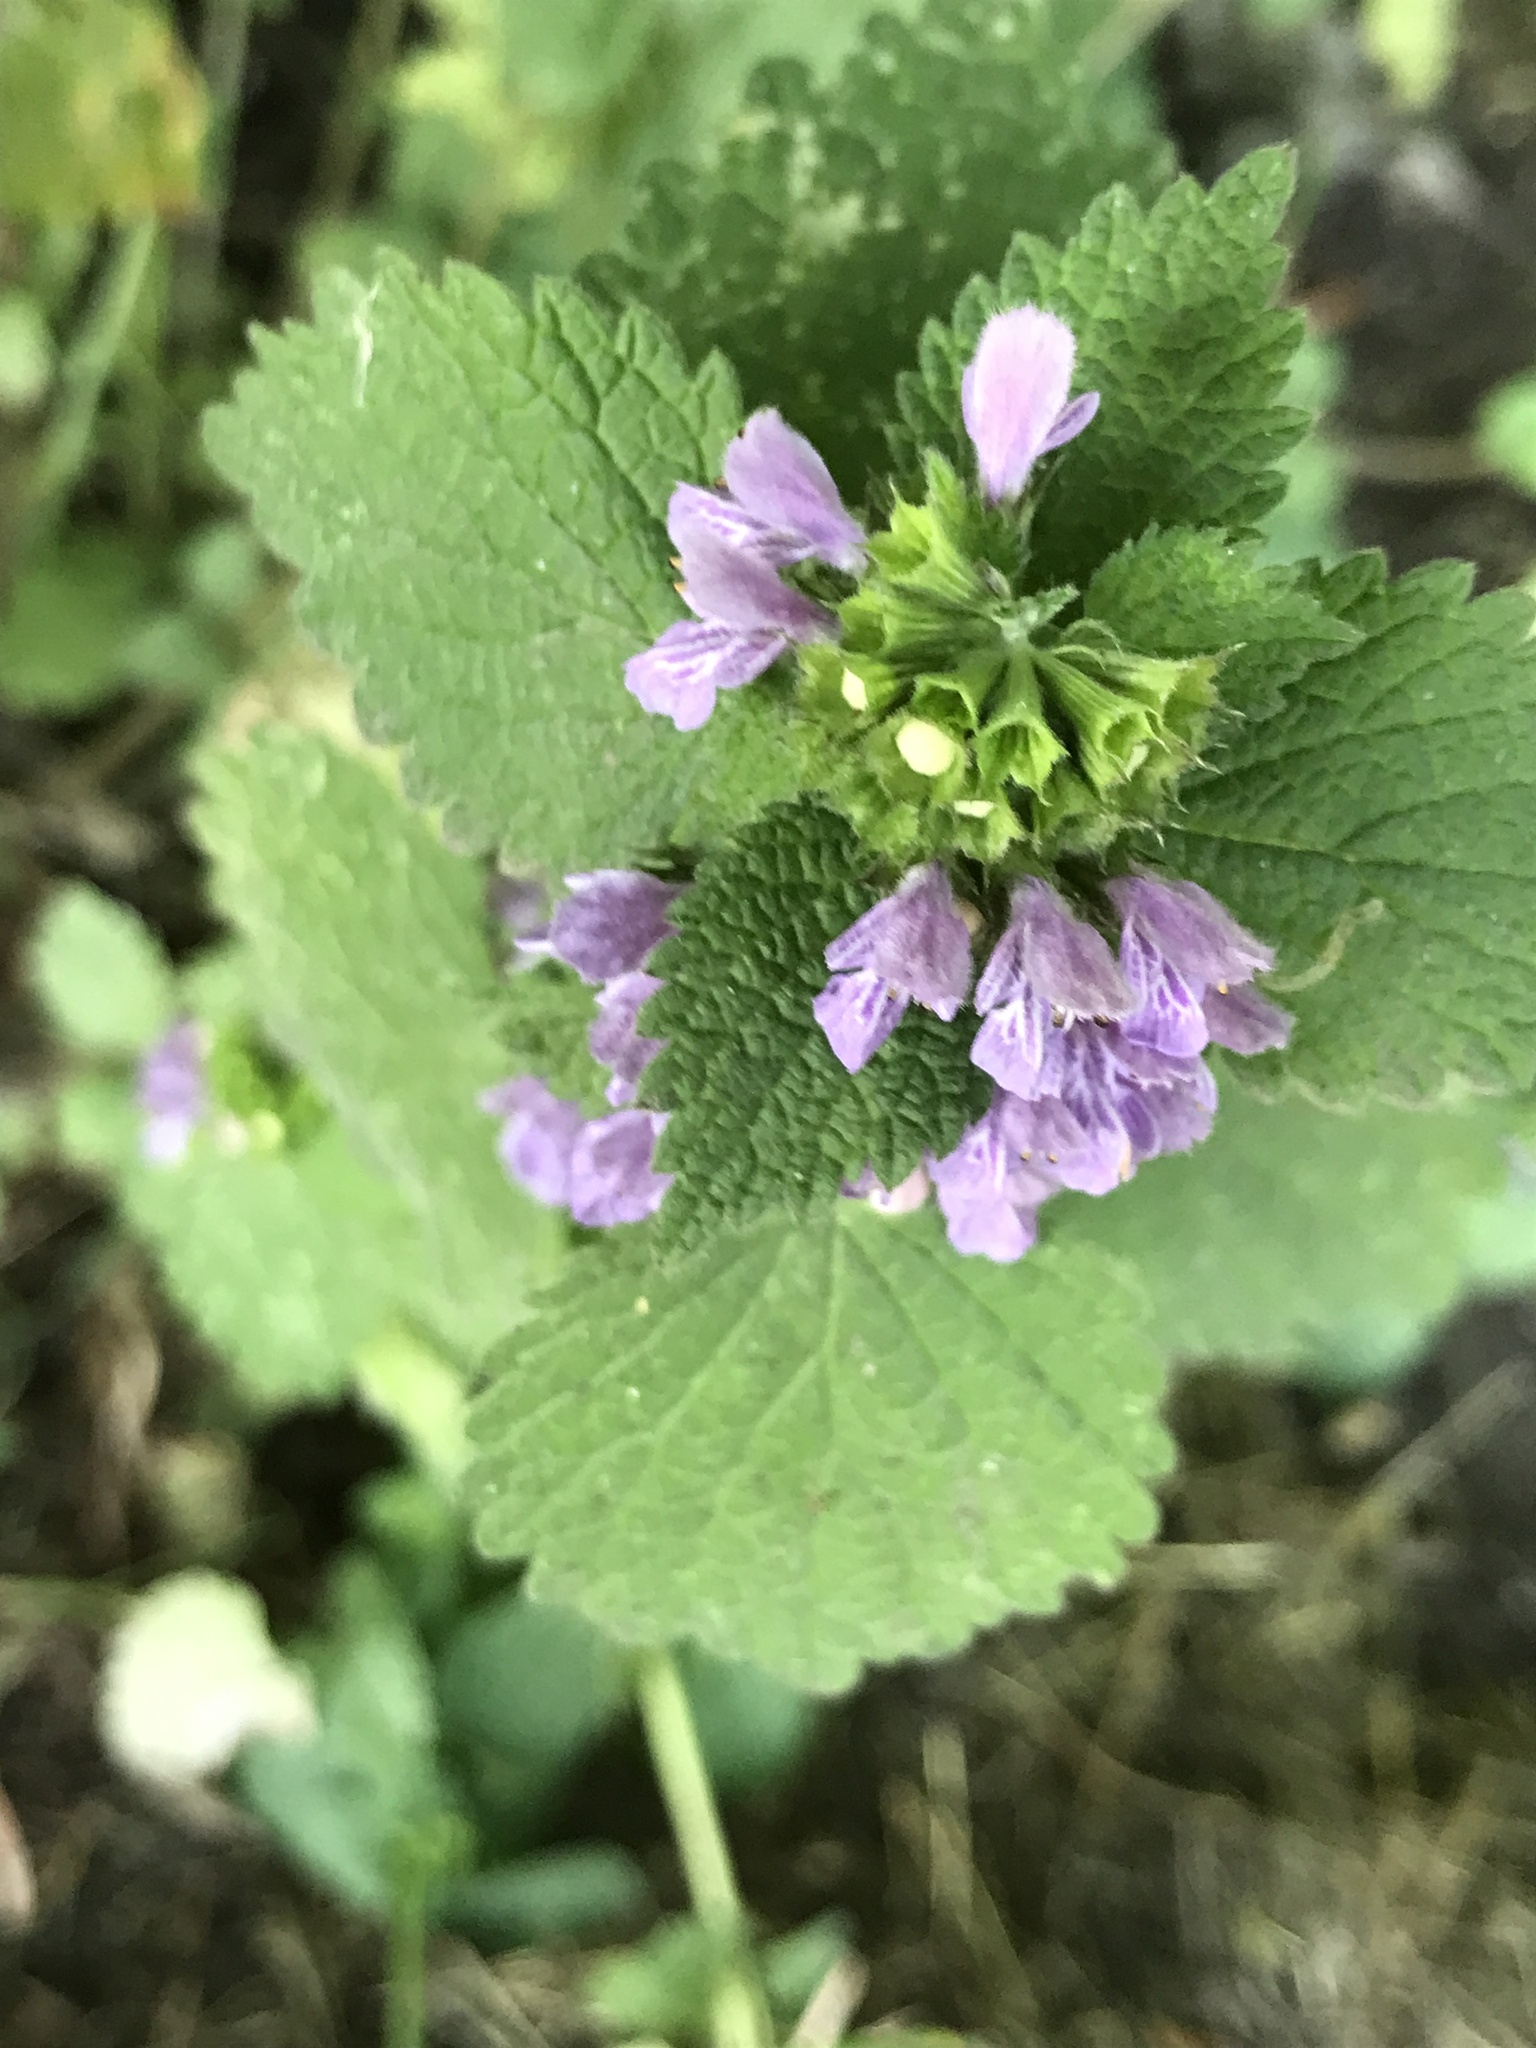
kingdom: Plantae
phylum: Tracheophyta
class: Magnoliopsida
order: Lamiales
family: Lamiaceae
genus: Ballota
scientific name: Ballota nigra
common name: Black horehound
